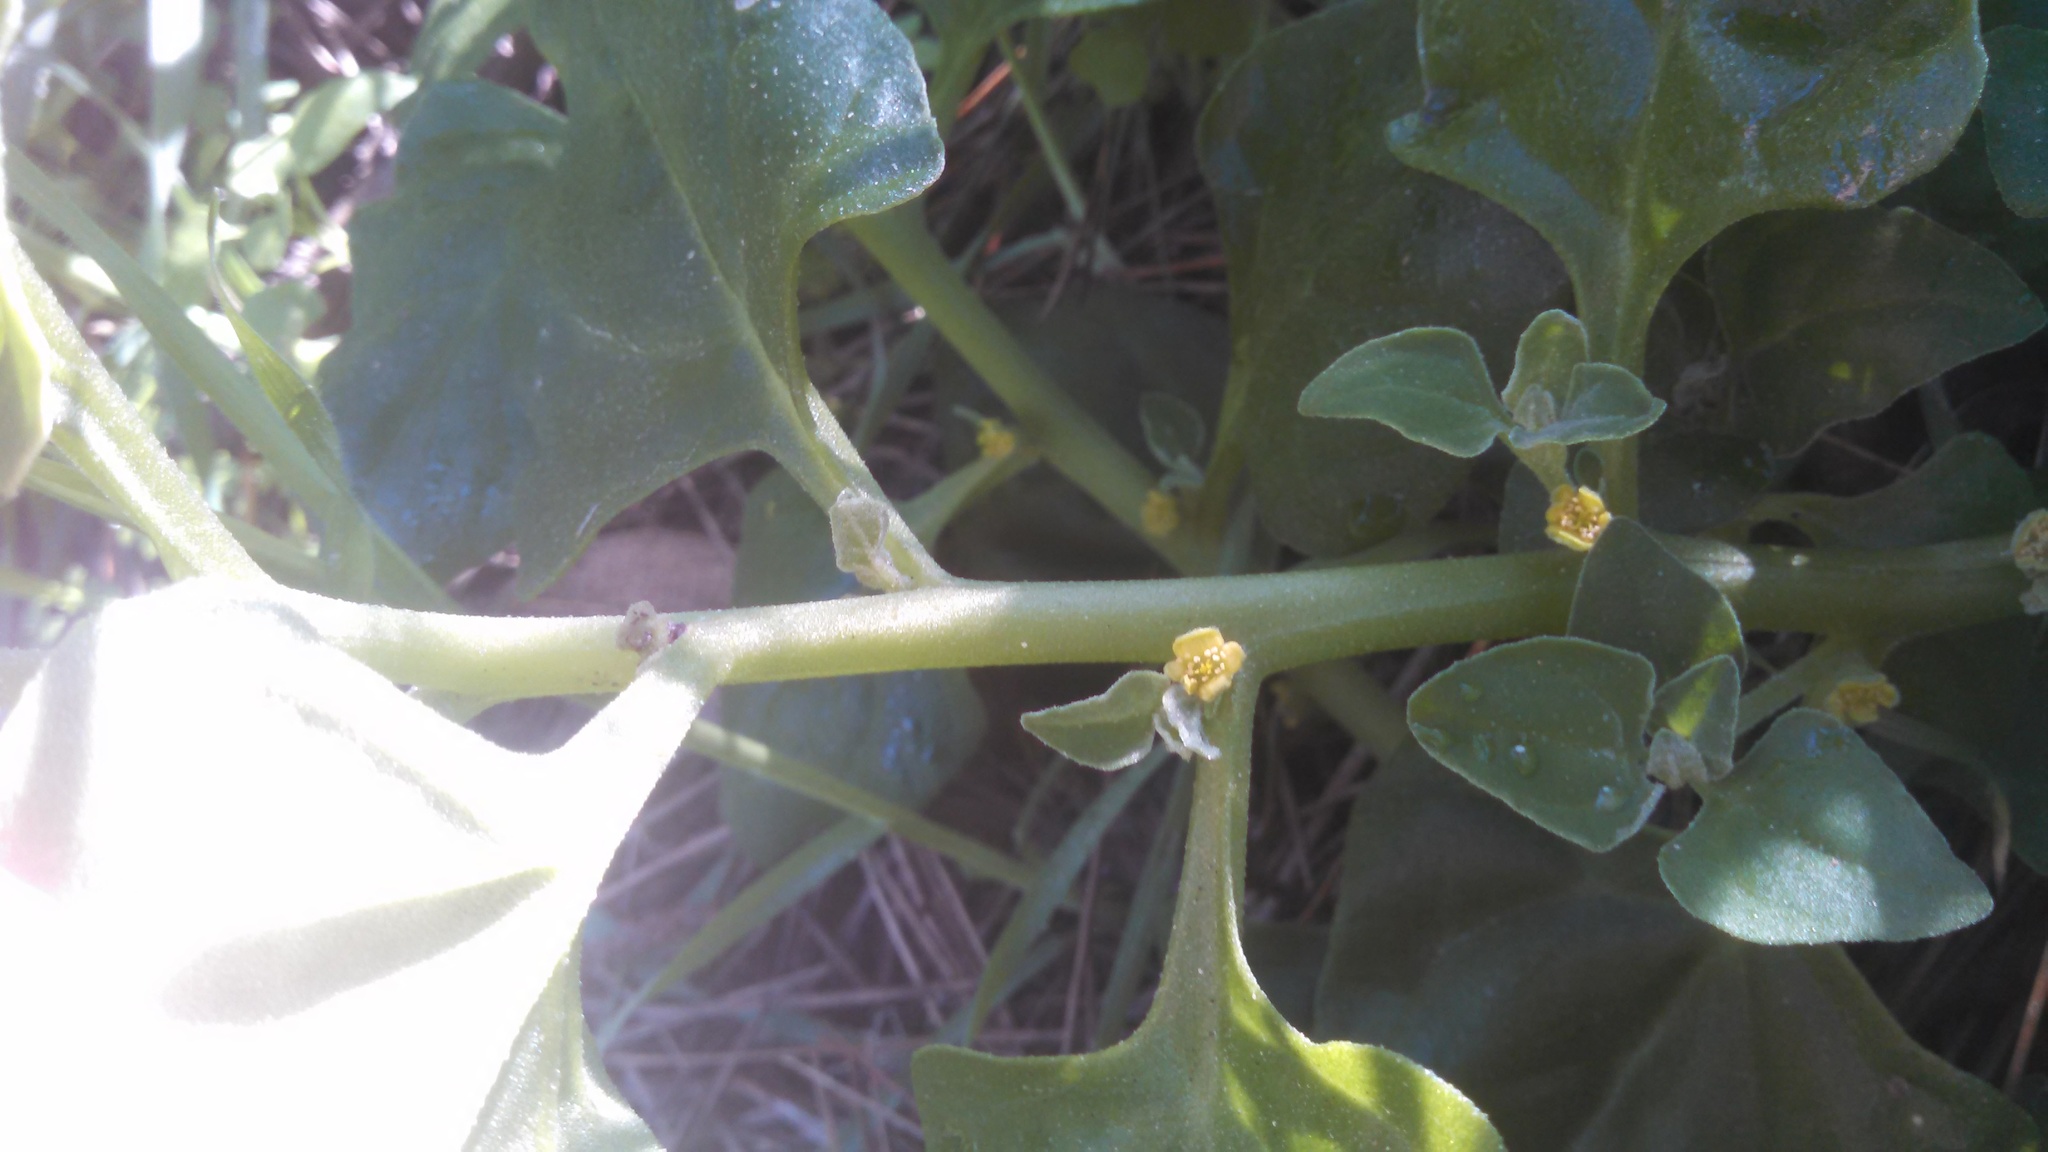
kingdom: Plantae
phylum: Tracheophyta
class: Magnoliopsida
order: Caryophyllales
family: Aizoaceae
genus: Tetragonia
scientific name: Tetragonia tetragonoides
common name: New zealand-spinach
